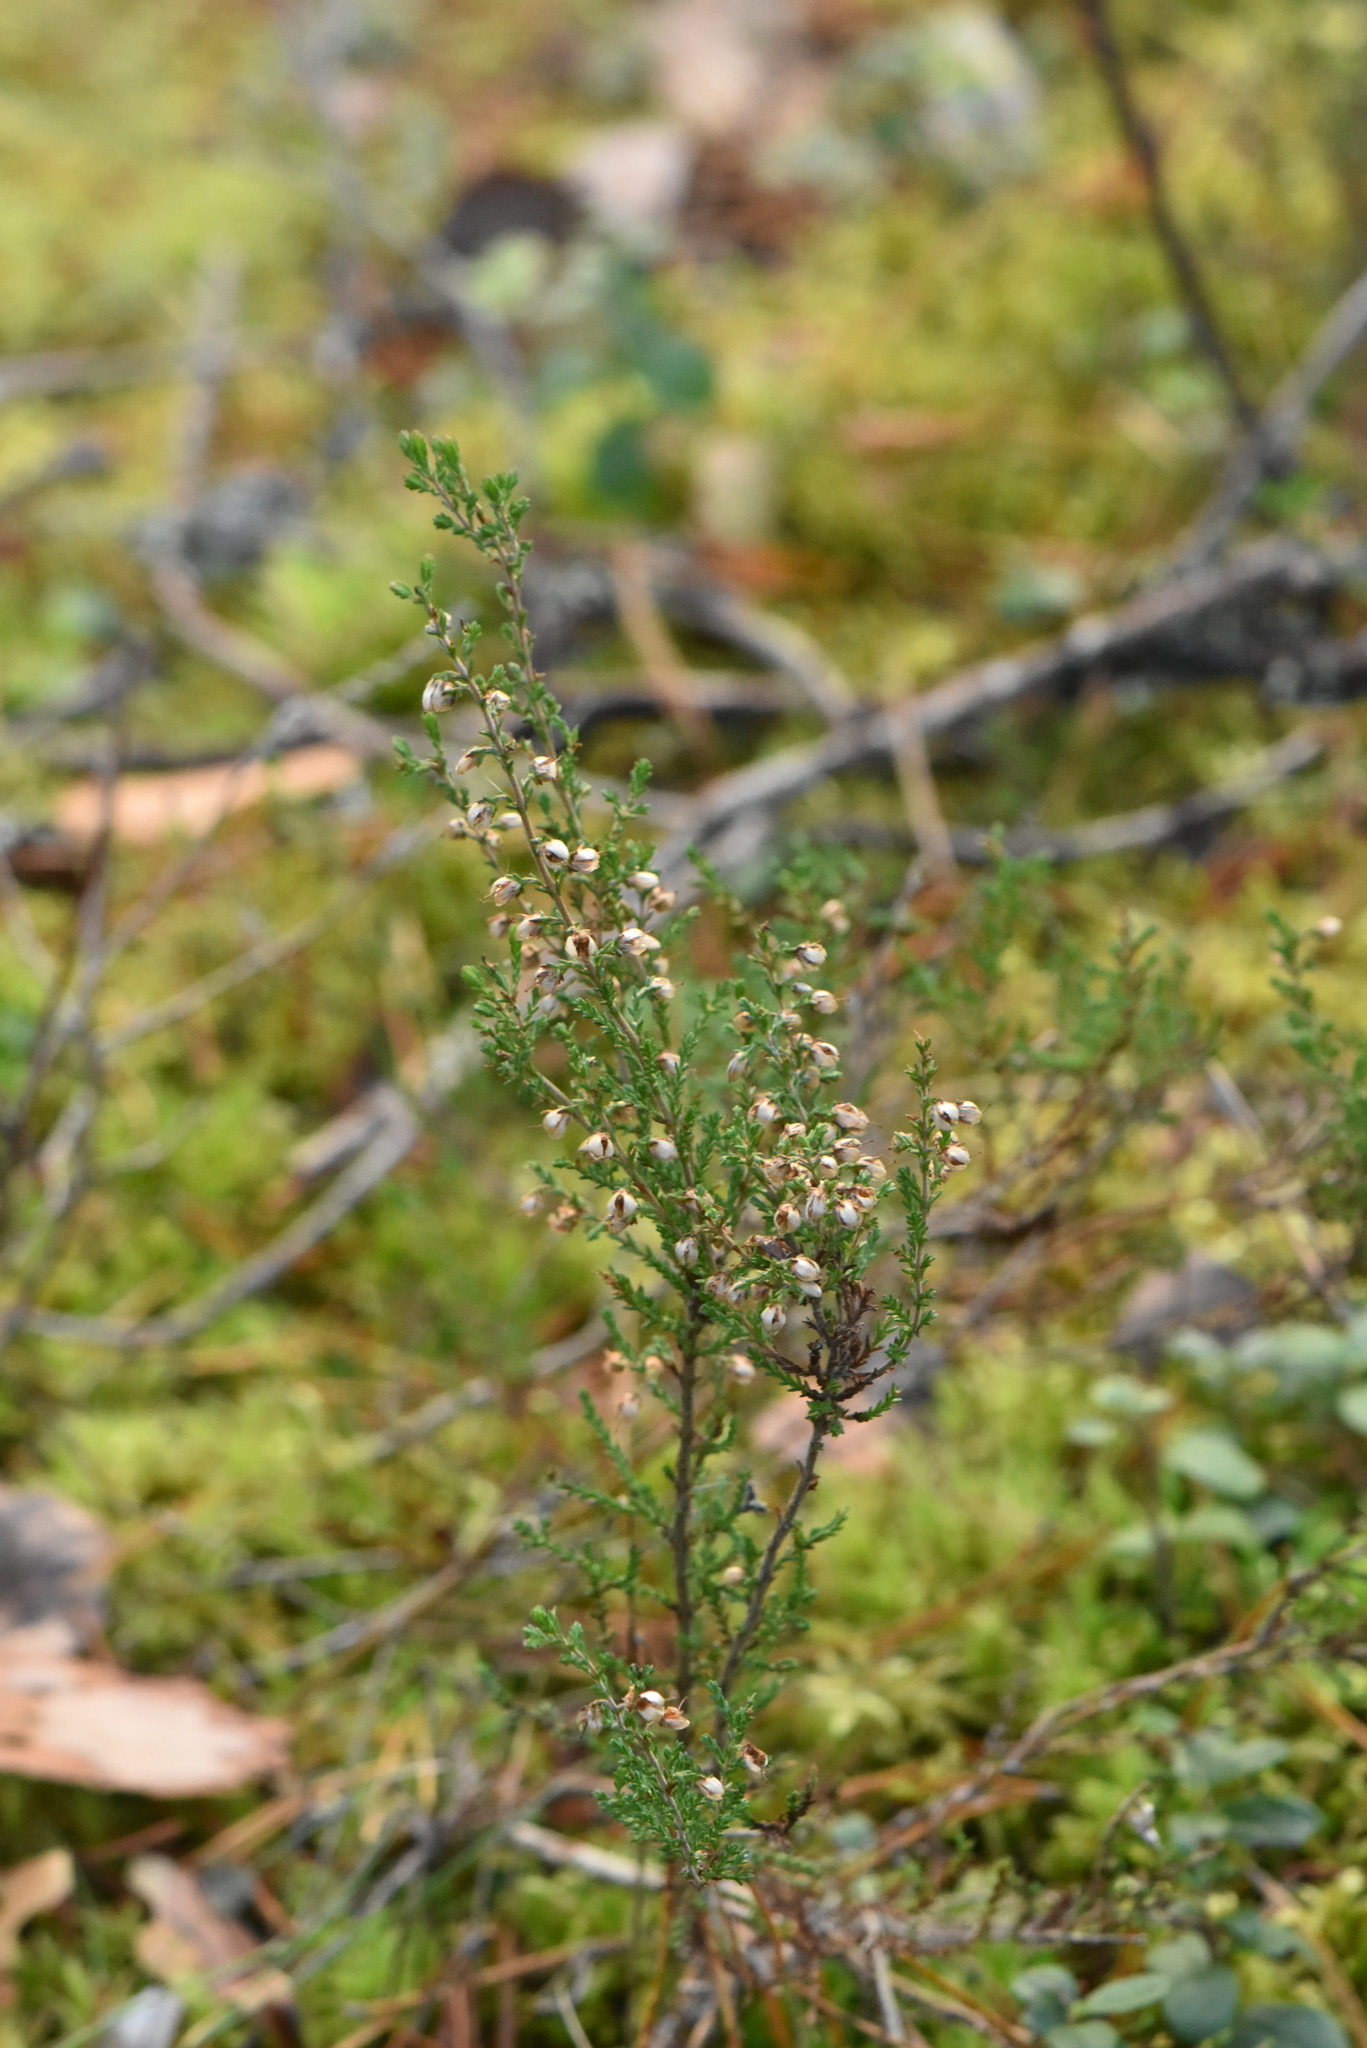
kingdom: Plantae
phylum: Tracheophyta
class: Magnoliopsida
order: Ericales
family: Ericaceae
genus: Calluna
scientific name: Calluna vulgaris
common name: Heather
